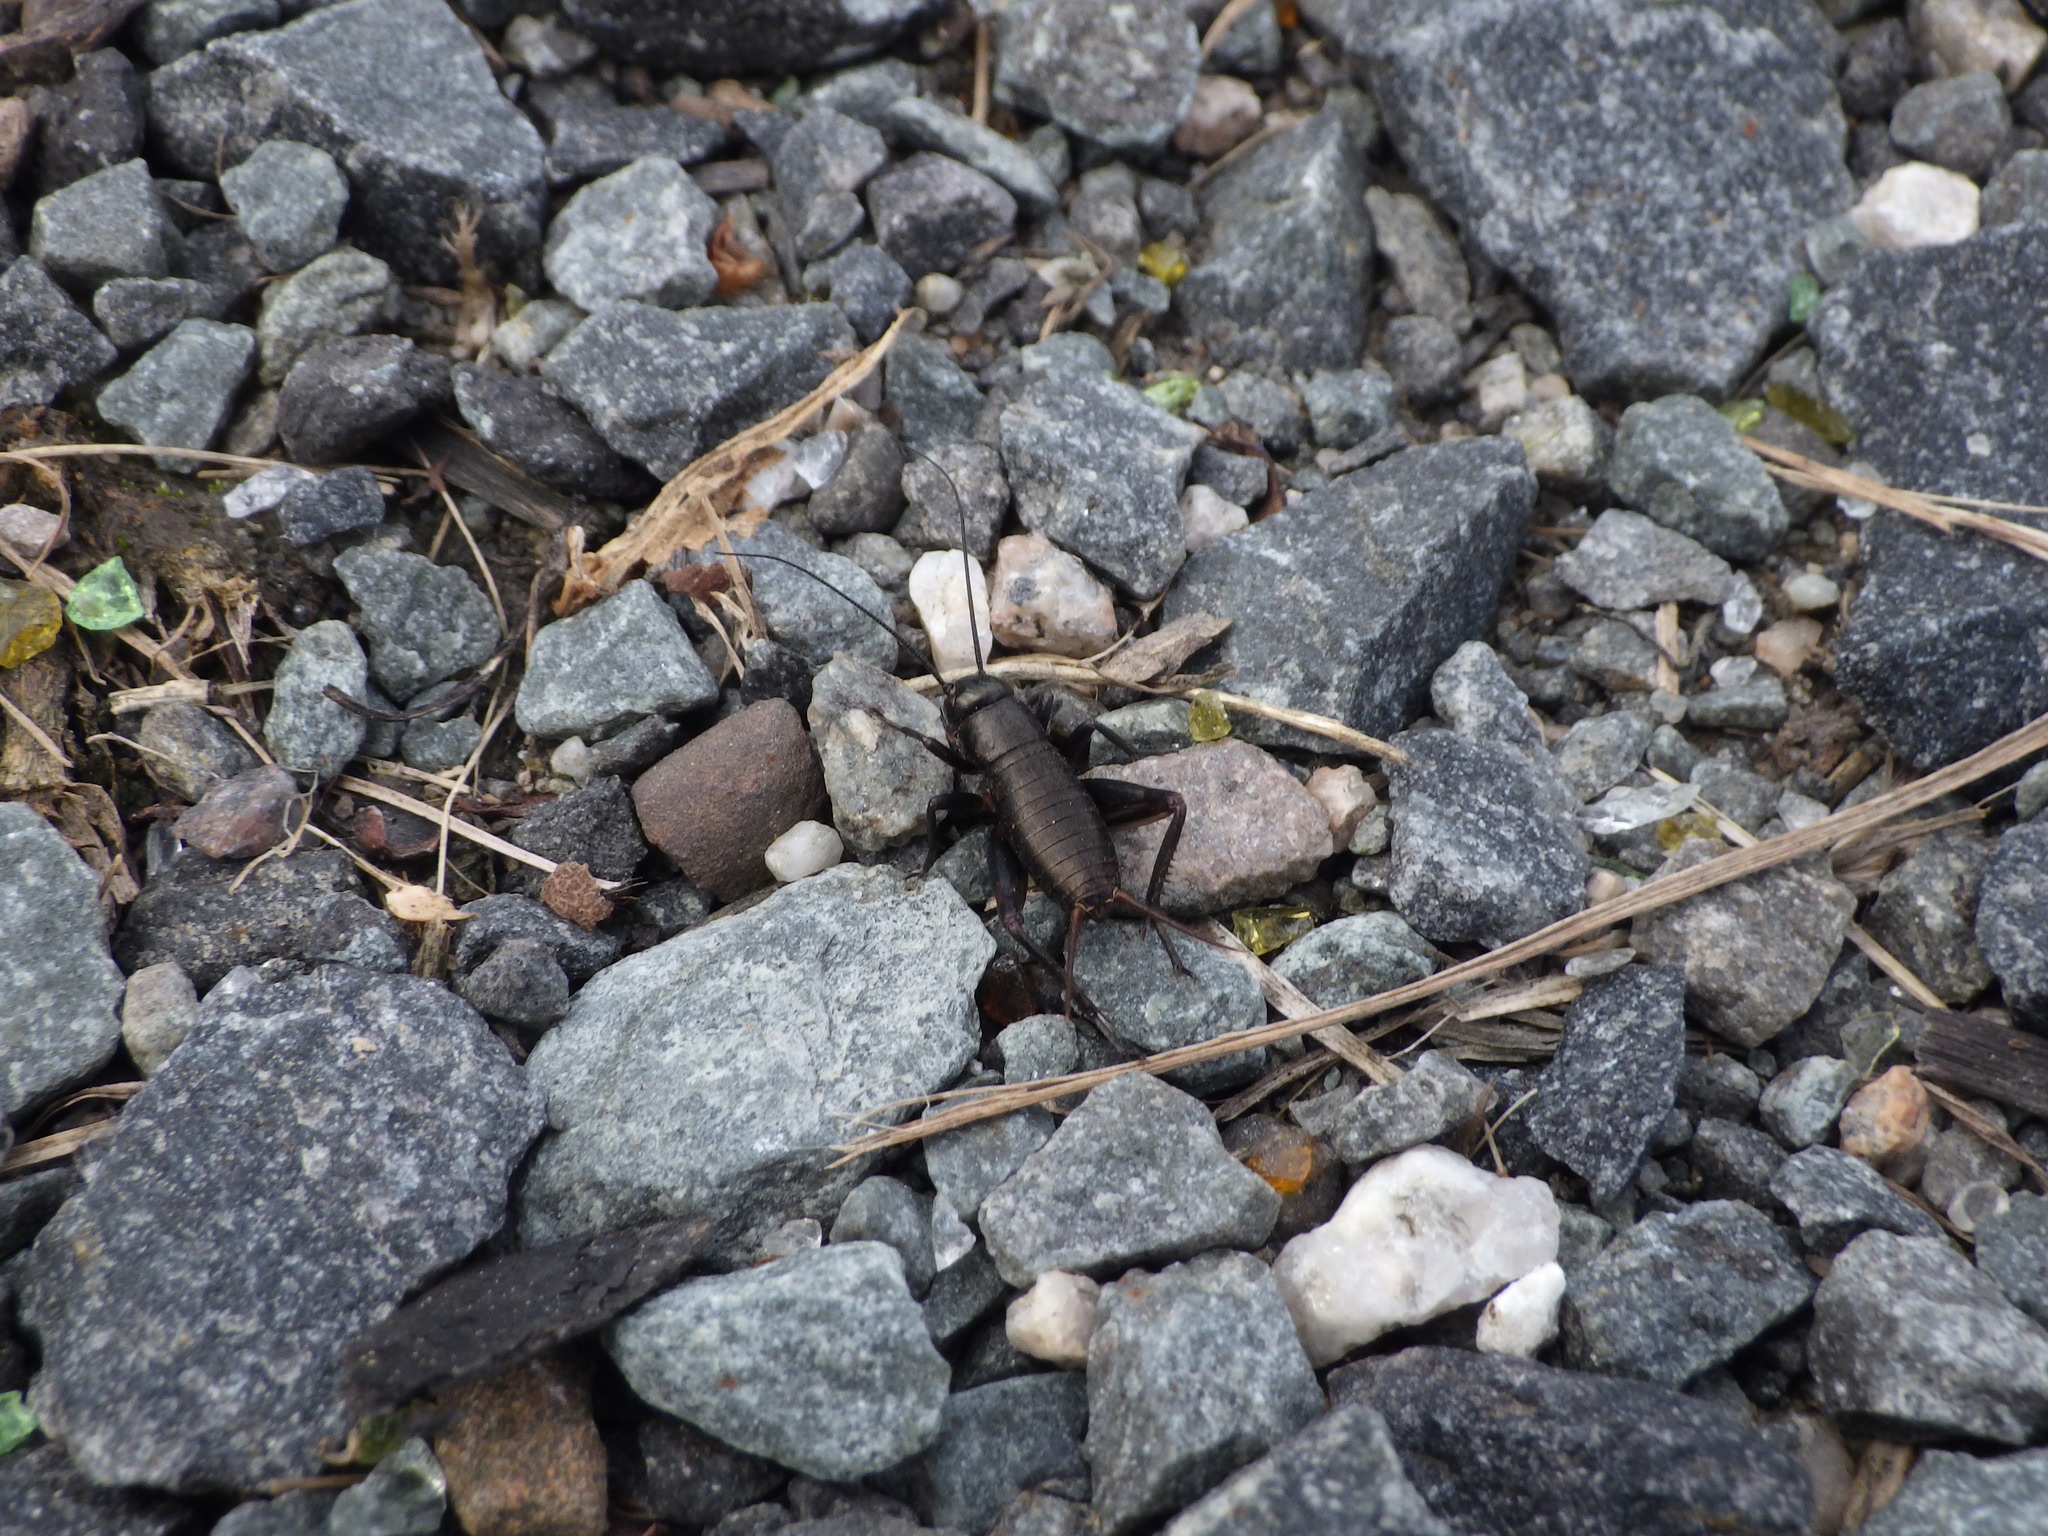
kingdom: Animalia
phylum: Arthropoda
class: Insecta
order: Orthoptera
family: Gryllidae
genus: Gryllus
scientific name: Gryllus veletis
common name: Spring field cricket
